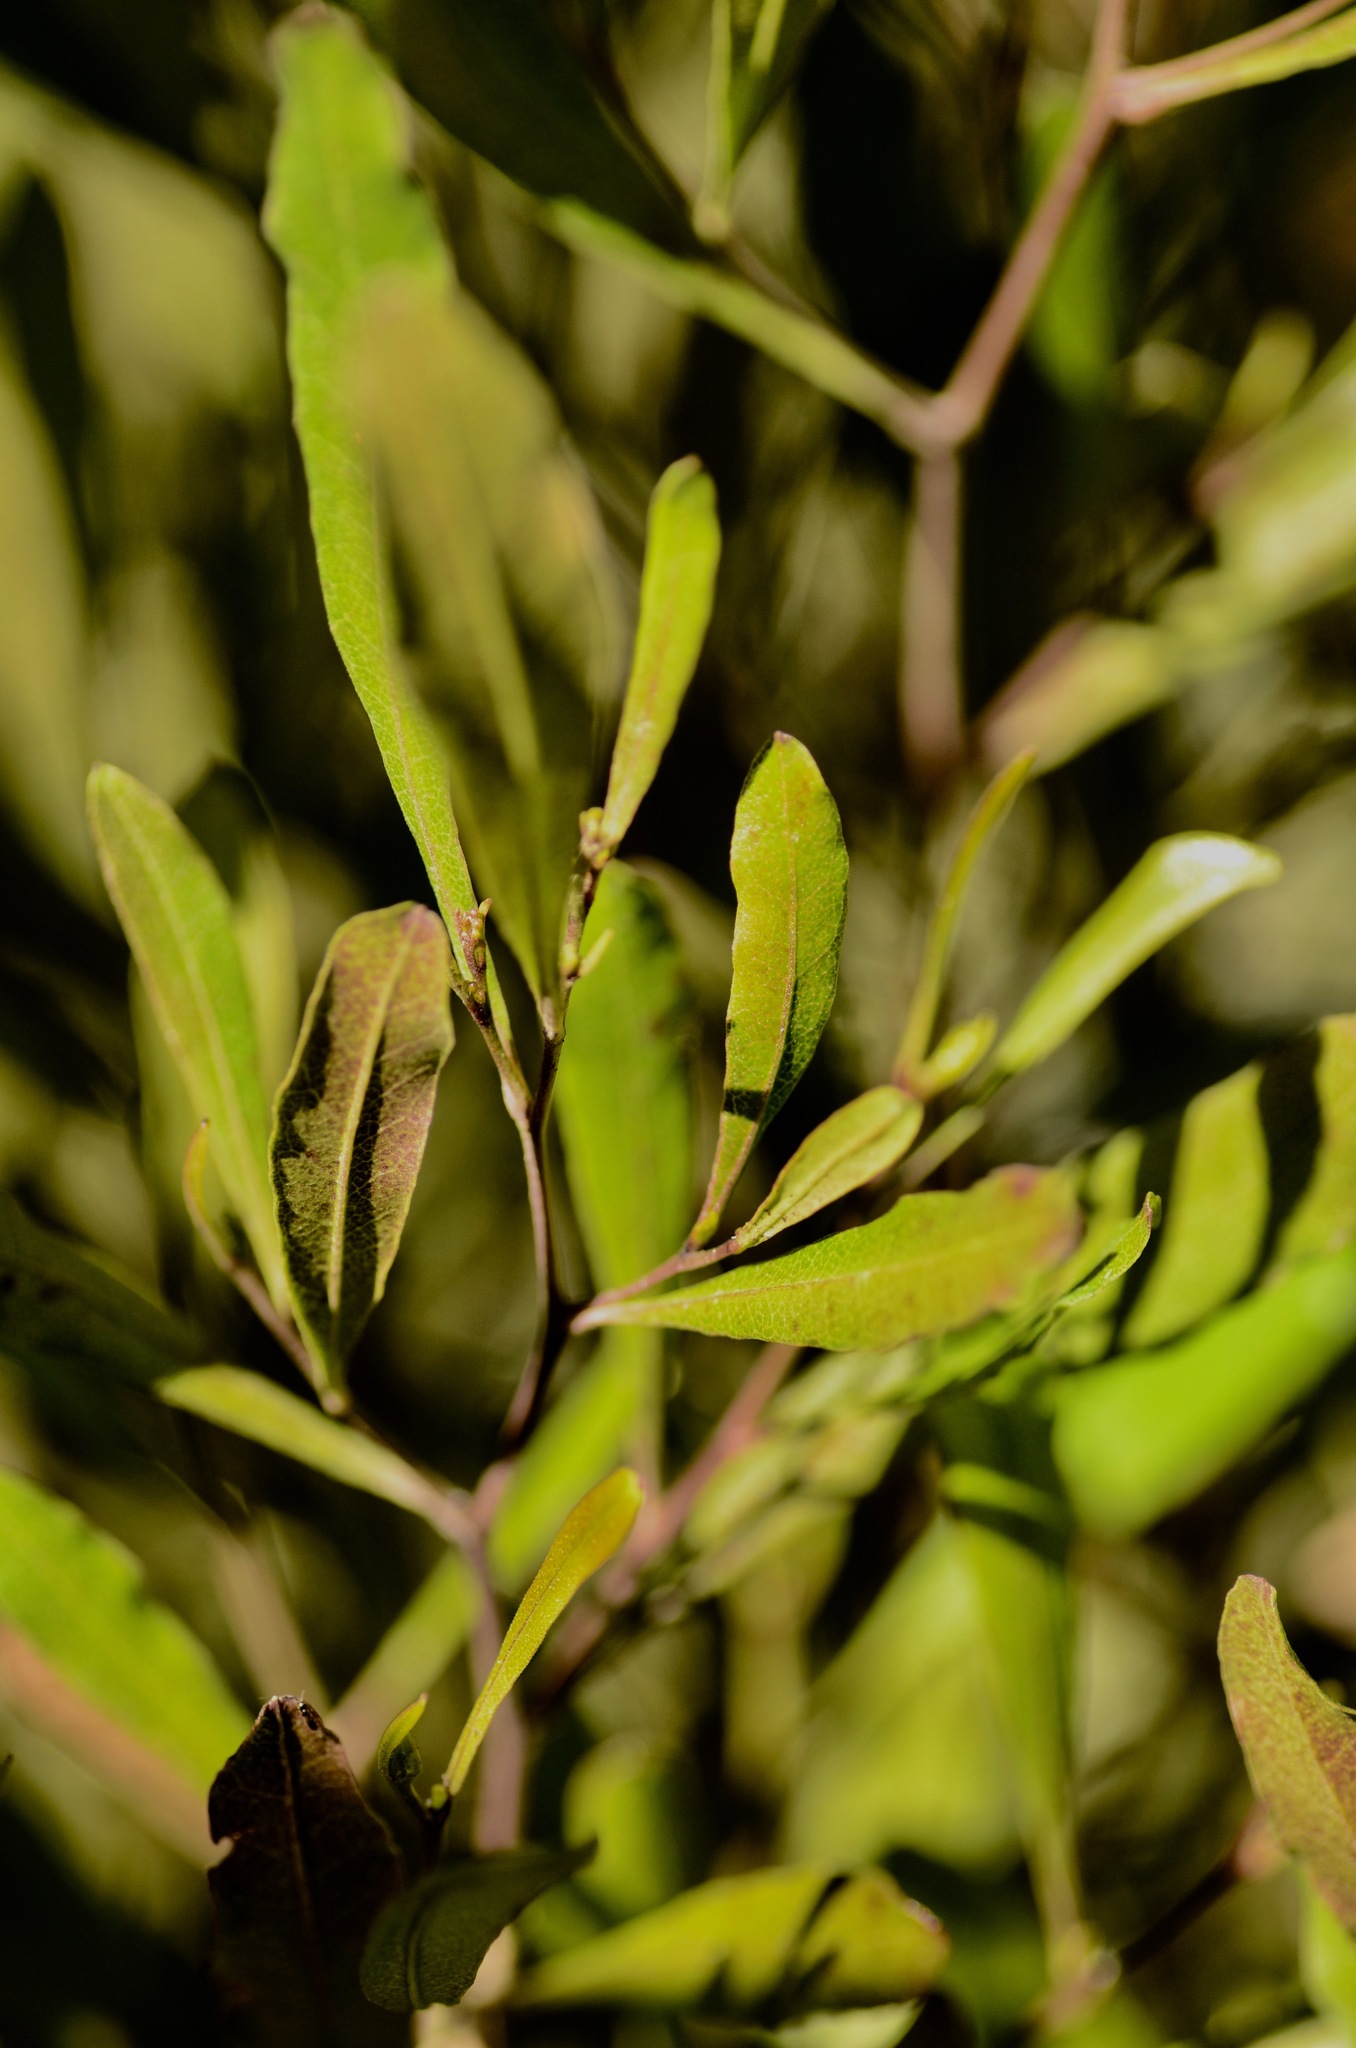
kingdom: Plantae
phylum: Tracheophyta
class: Magnoliopsida
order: Sapindales
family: Sapindaceae
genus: Dodonaea
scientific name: Dodonaea viscosa
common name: Hopbush
